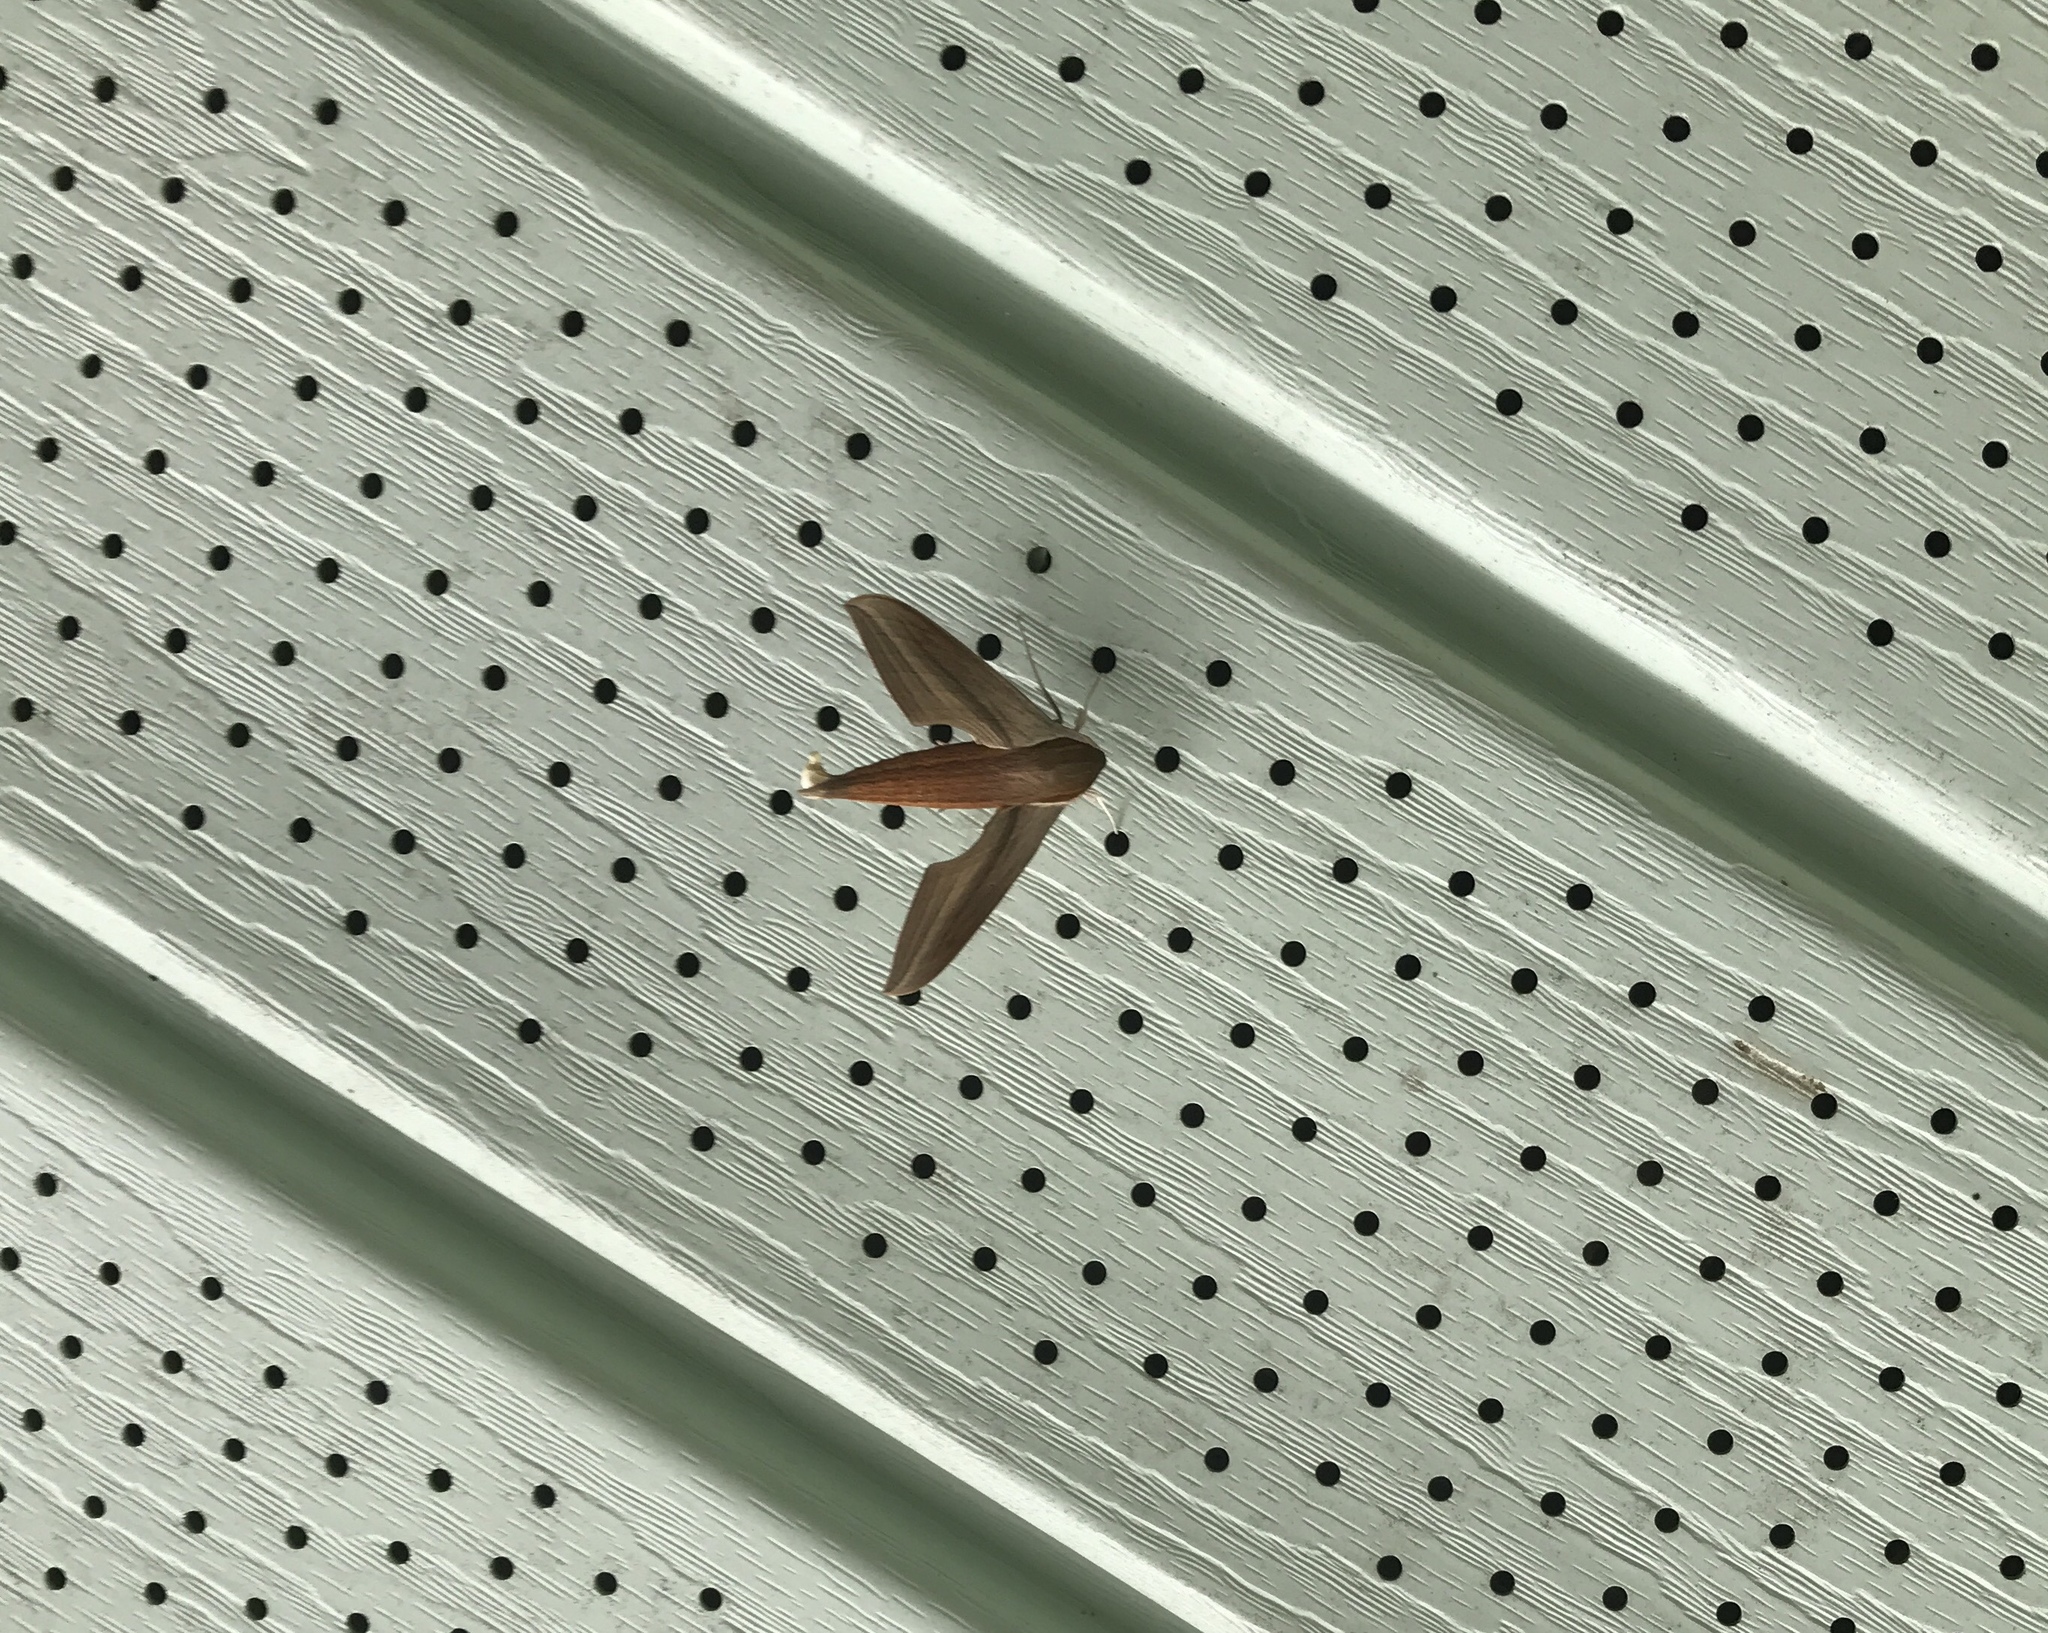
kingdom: Animalia
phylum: Arthropoda
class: Insecta
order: Lepidoptera
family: Sphingidae
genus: Xylophanes
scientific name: Xylophanes tersa
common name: Tersa sphinx
